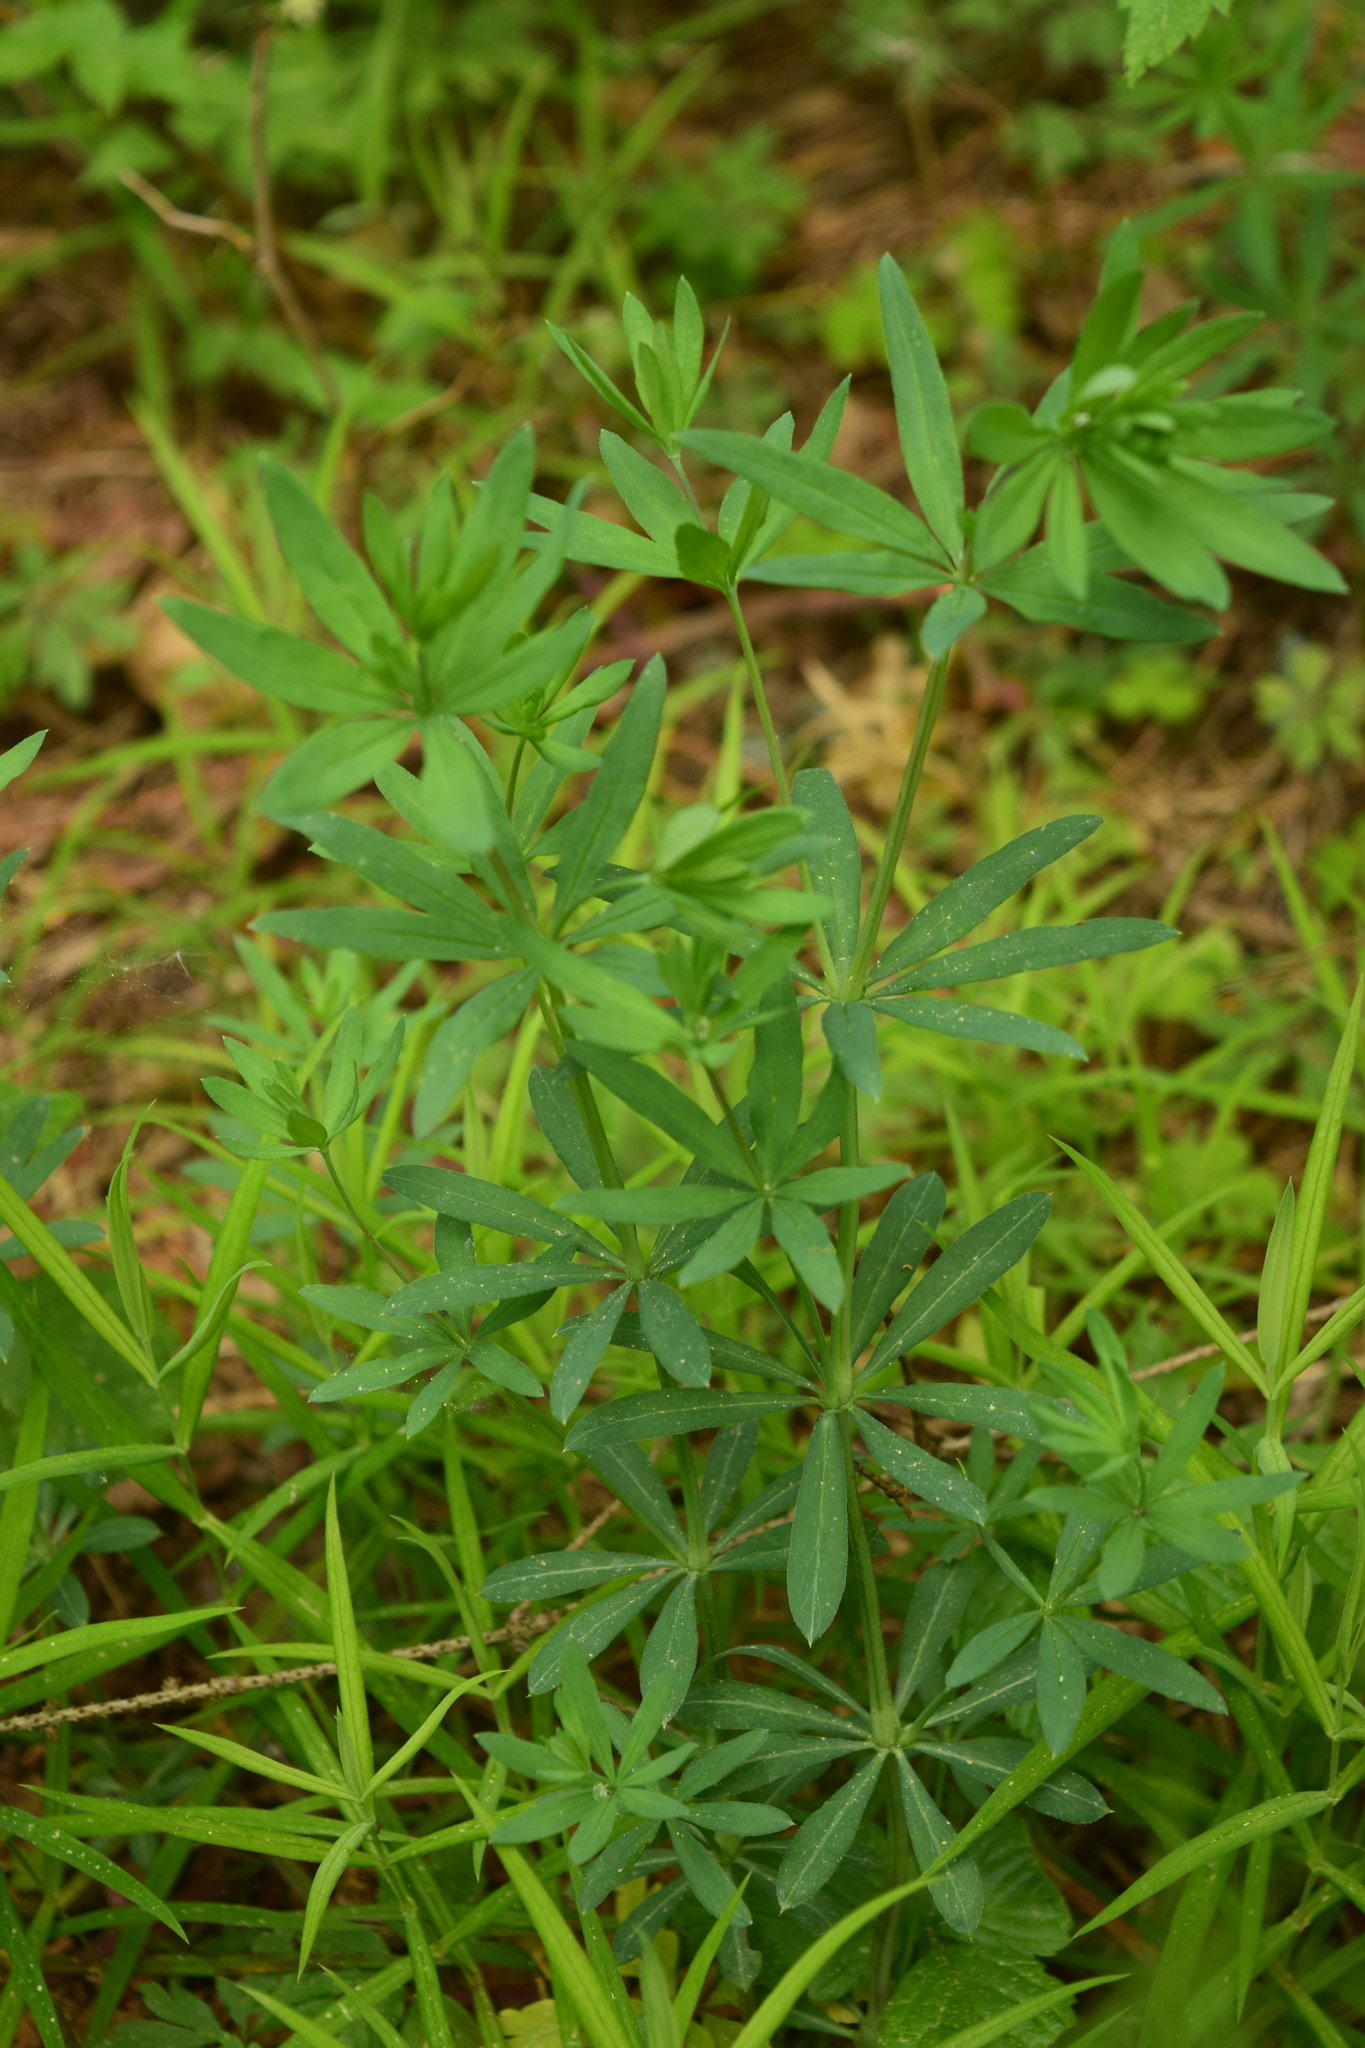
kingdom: Plantae
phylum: Tracheophyta
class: Magnoliopsida
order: Gentianales
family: Rubiaceae
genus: Galium
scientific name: Galium intermedium
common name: Bedstraw
